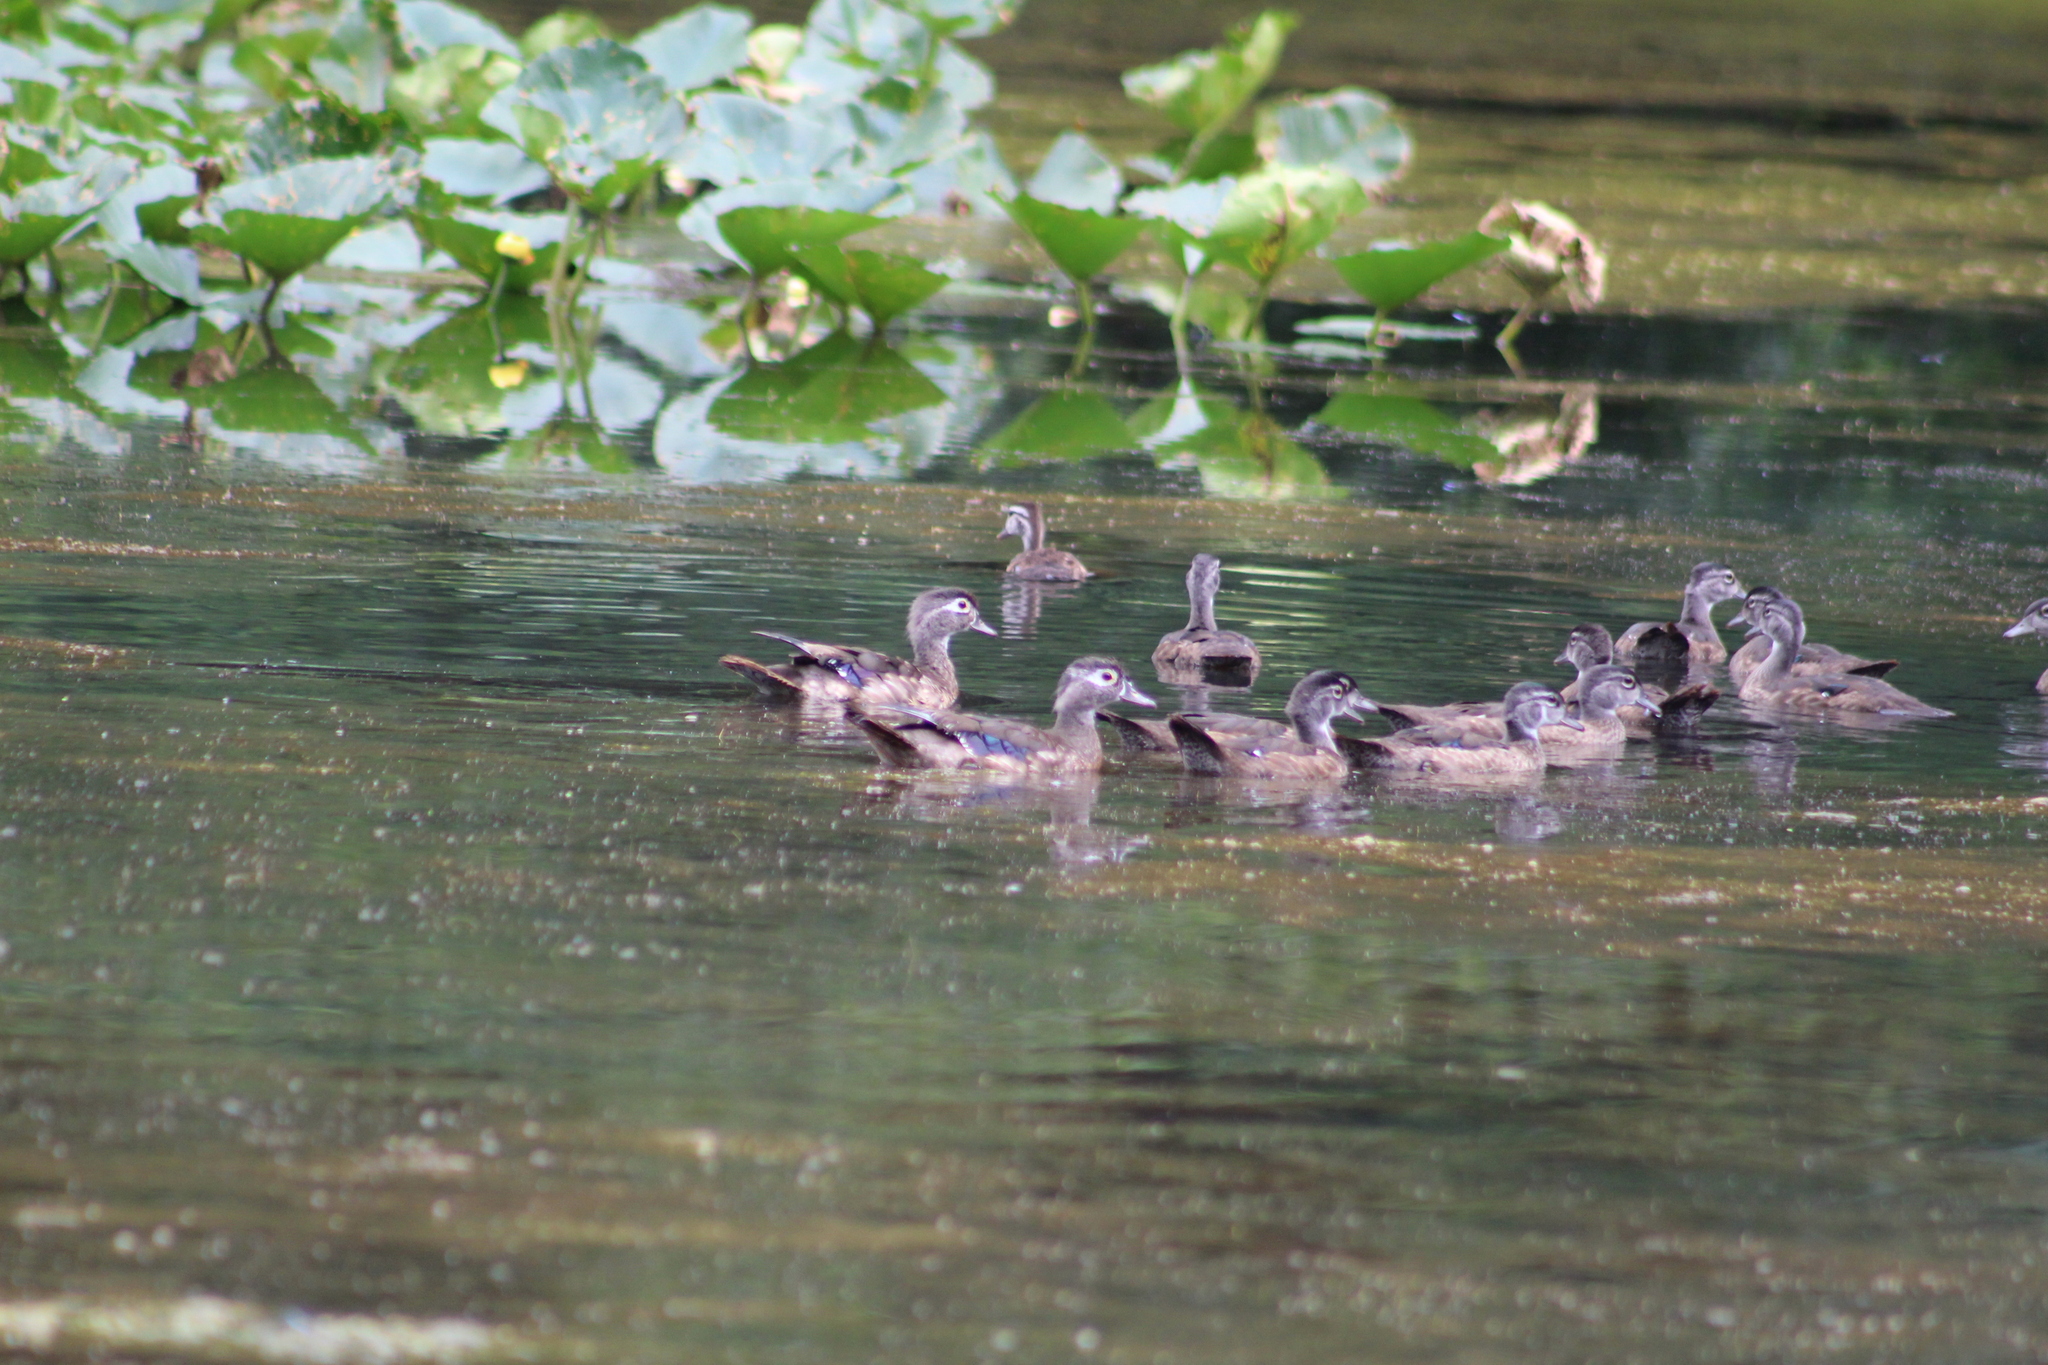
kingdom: Animalia
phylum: Chordata
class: Aves
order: Anseriformes
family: Anatidae
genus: Aix
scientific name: Aix sponsa
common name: Wood duck
